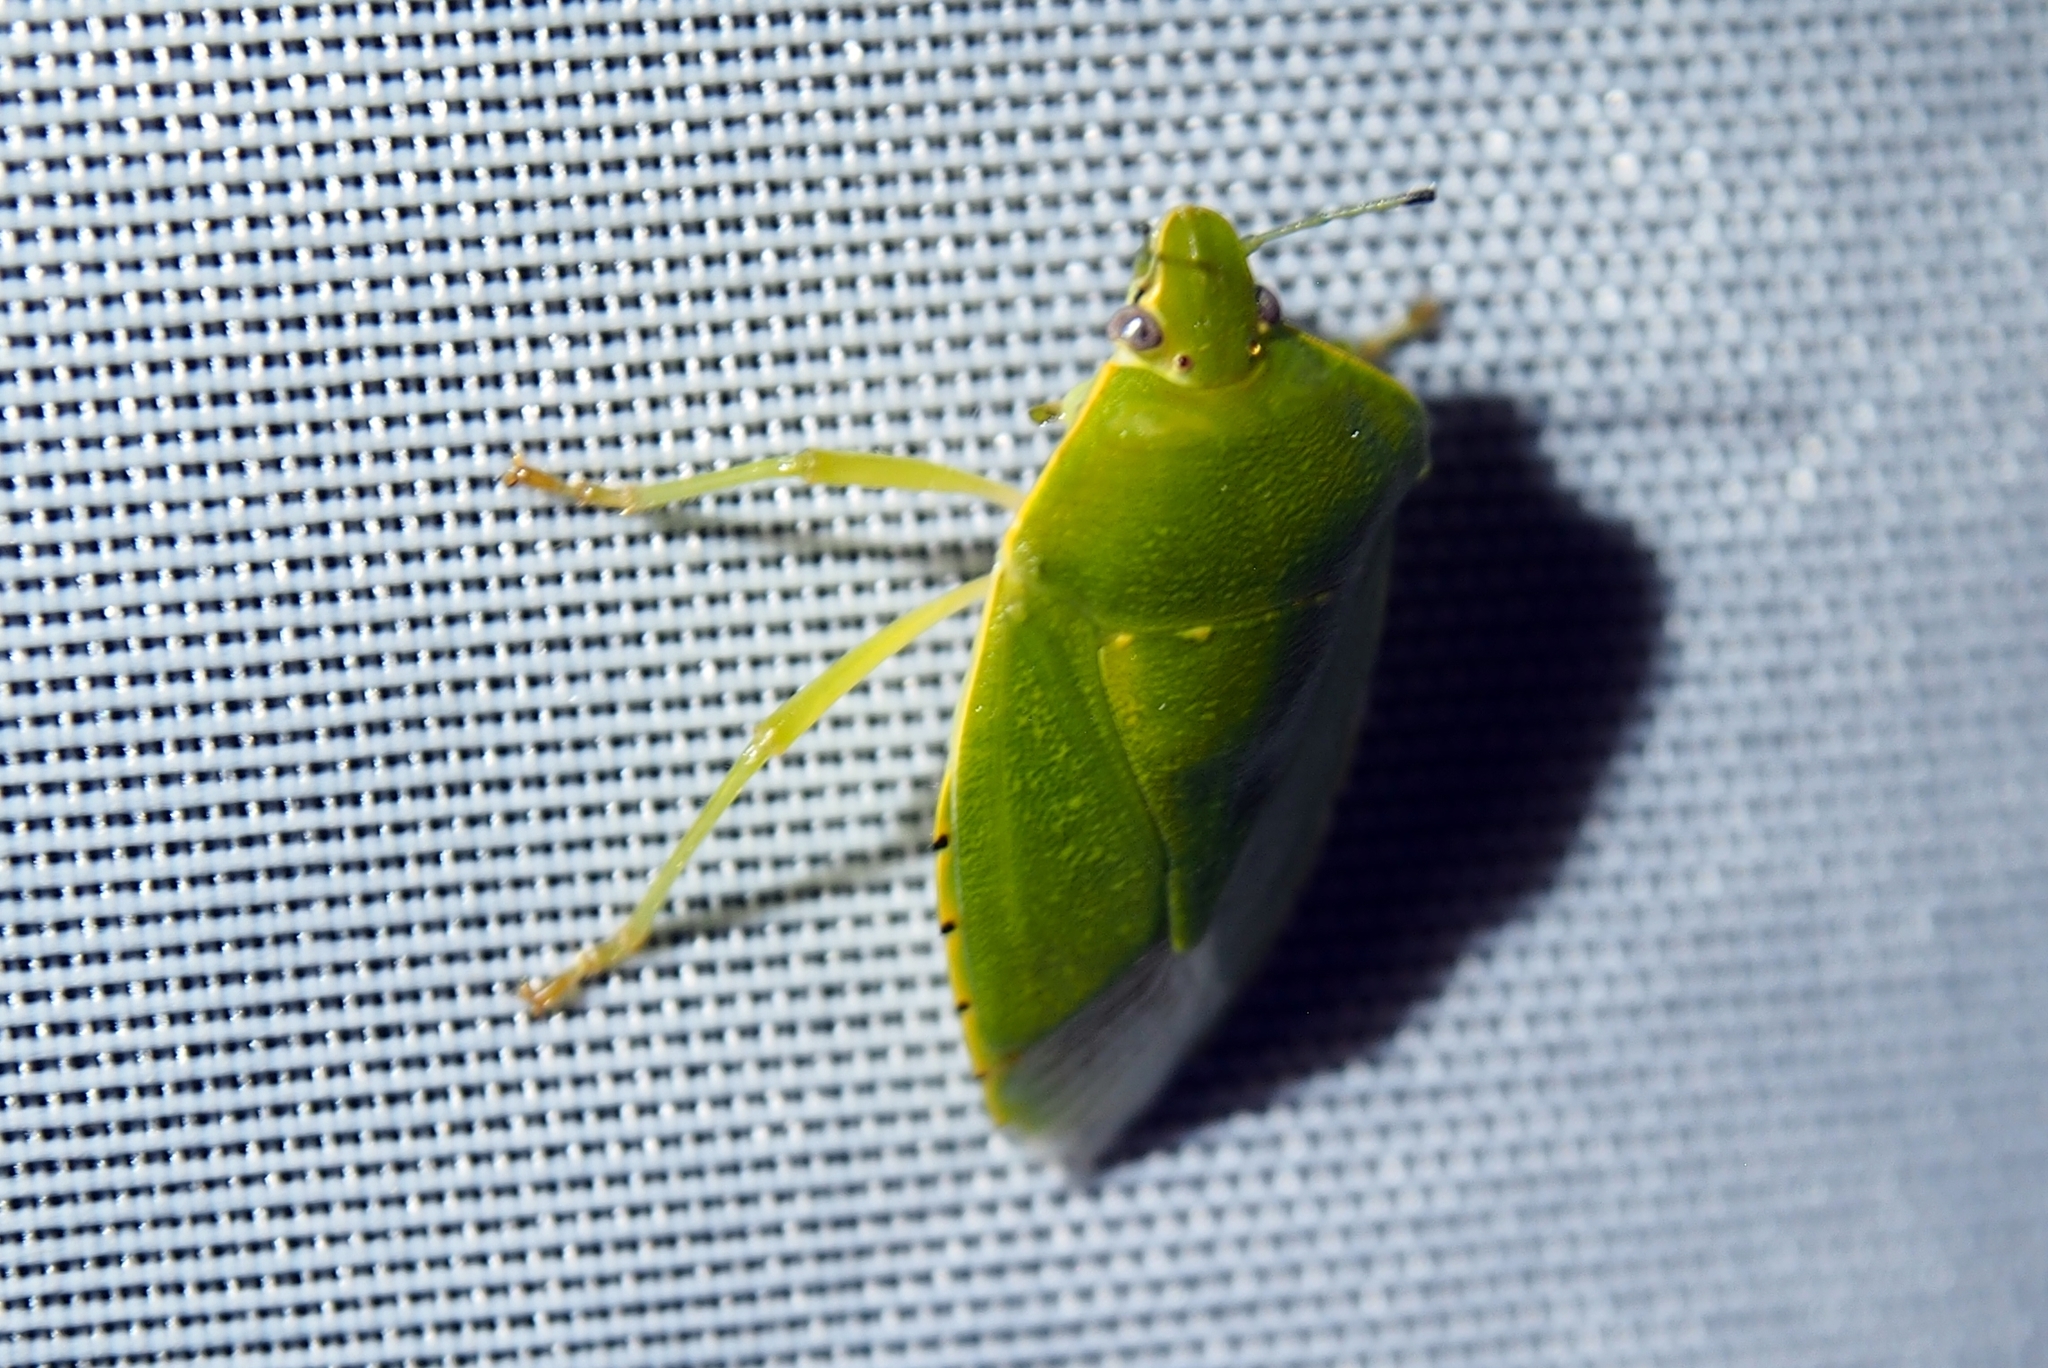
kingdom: Animalia
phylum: Arthropoda
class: Insecta
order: Hemiptera
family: Pentatomidae
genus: Chinavia
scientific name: Chinavia hilaris
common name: Green stink bug
